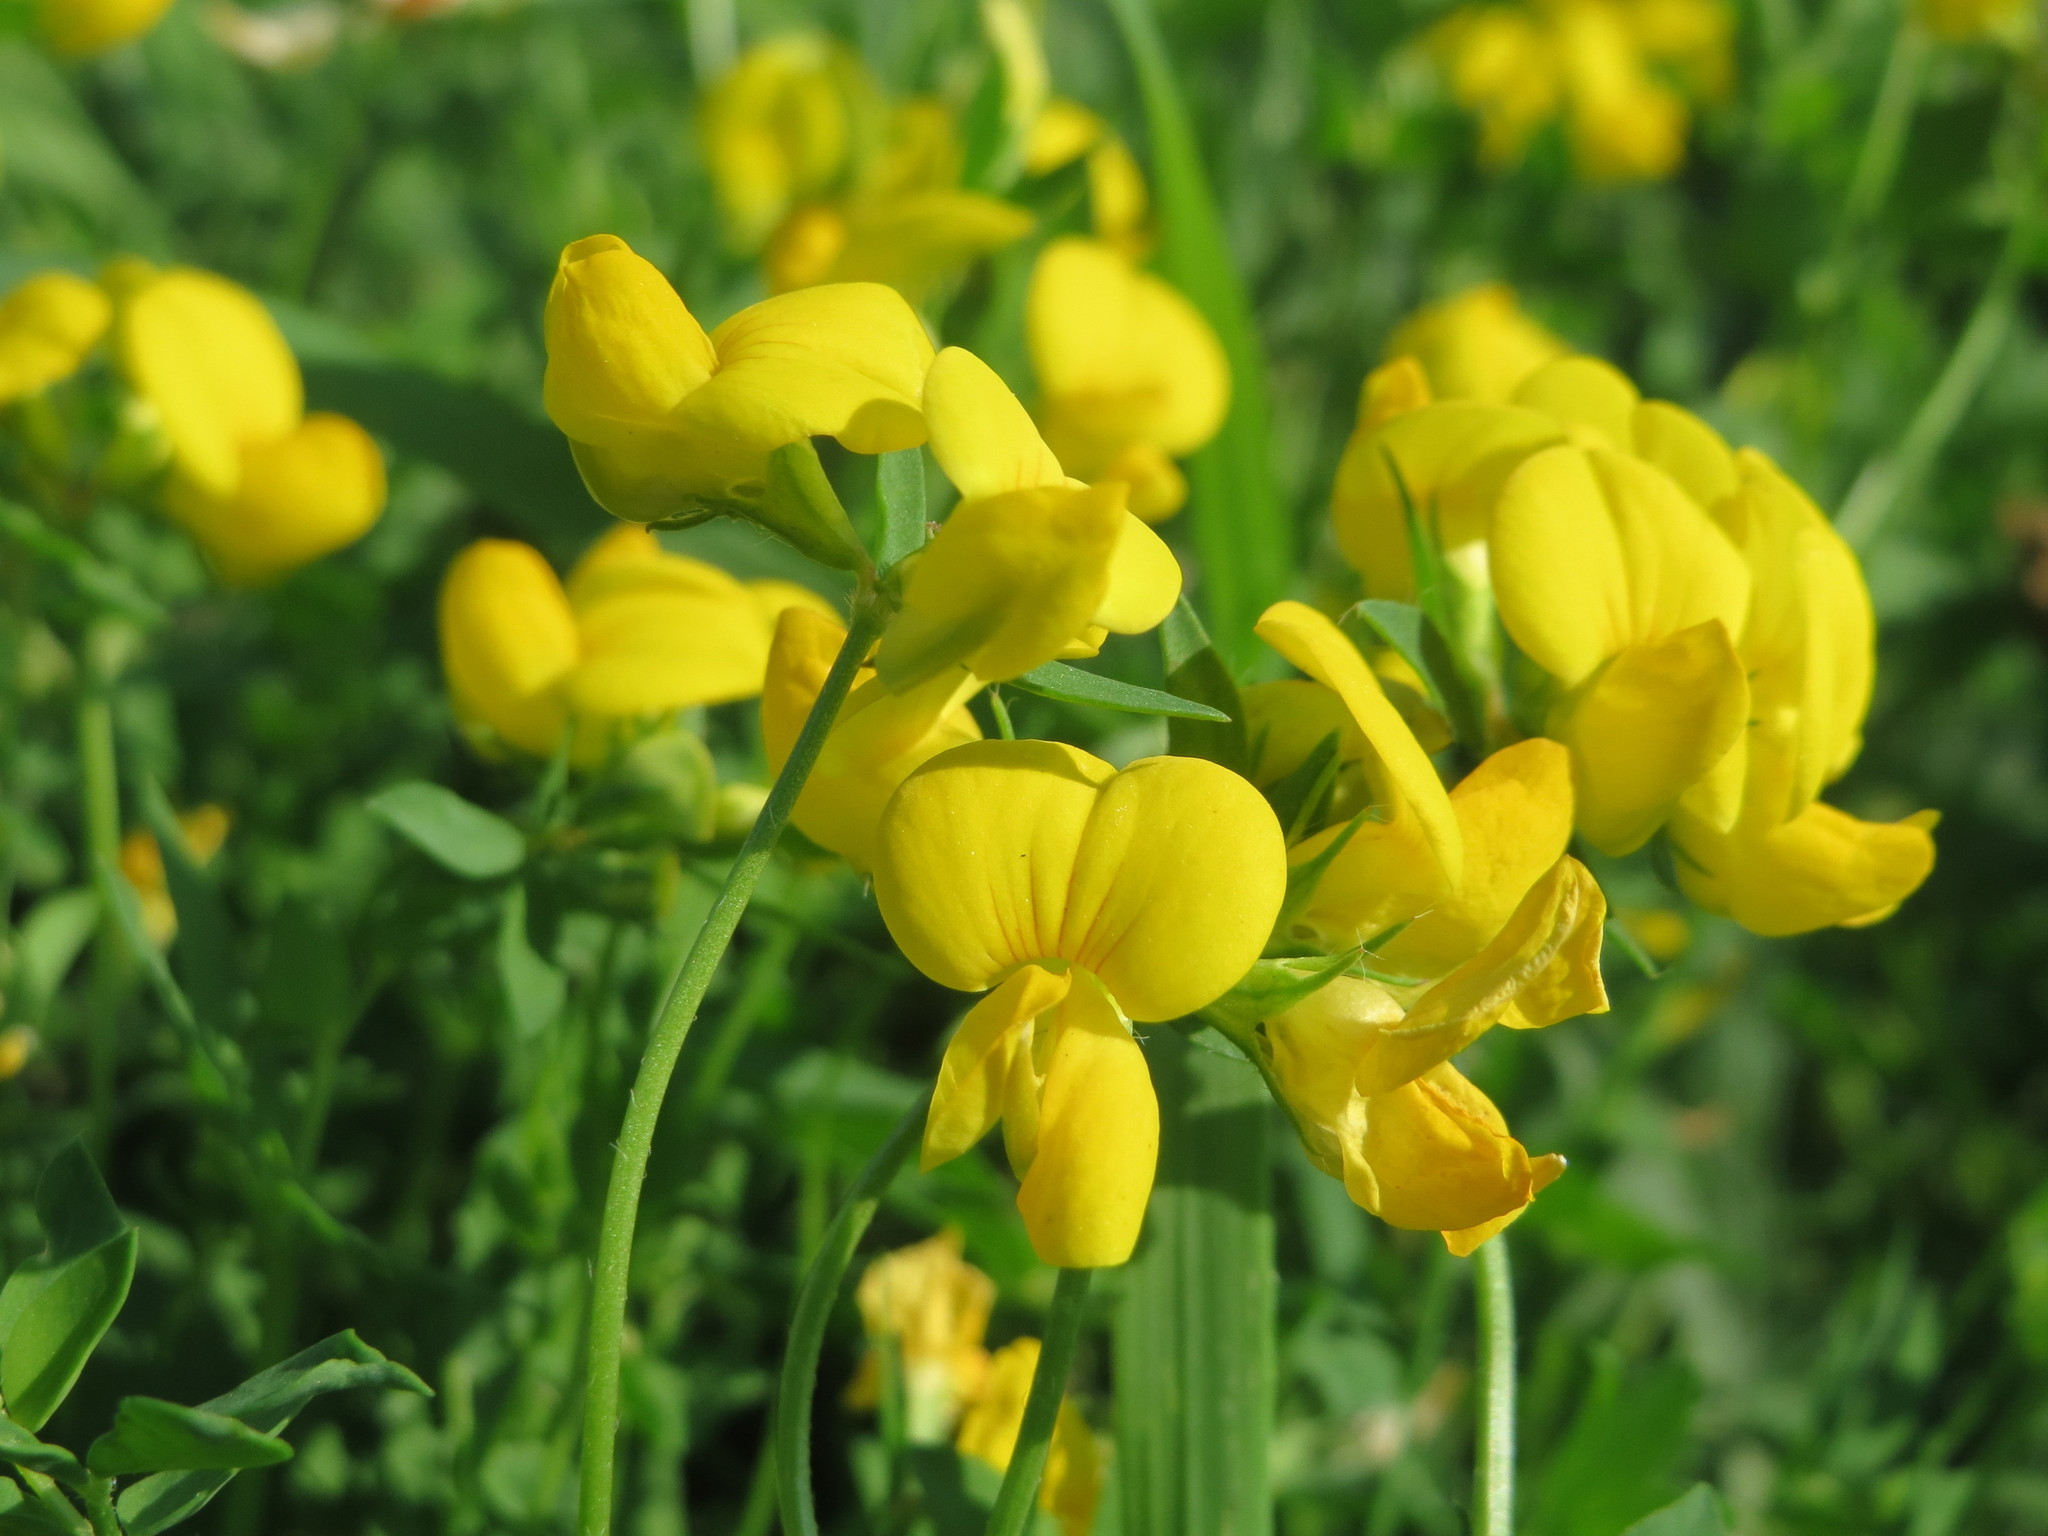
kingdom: Plantae
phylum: Tracheophyta
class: Magnoliopsida
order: Fabales
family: Fabaceae
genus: Lotus
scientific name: Lotus corniculatus
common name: Common bird's-foot-trefoil
